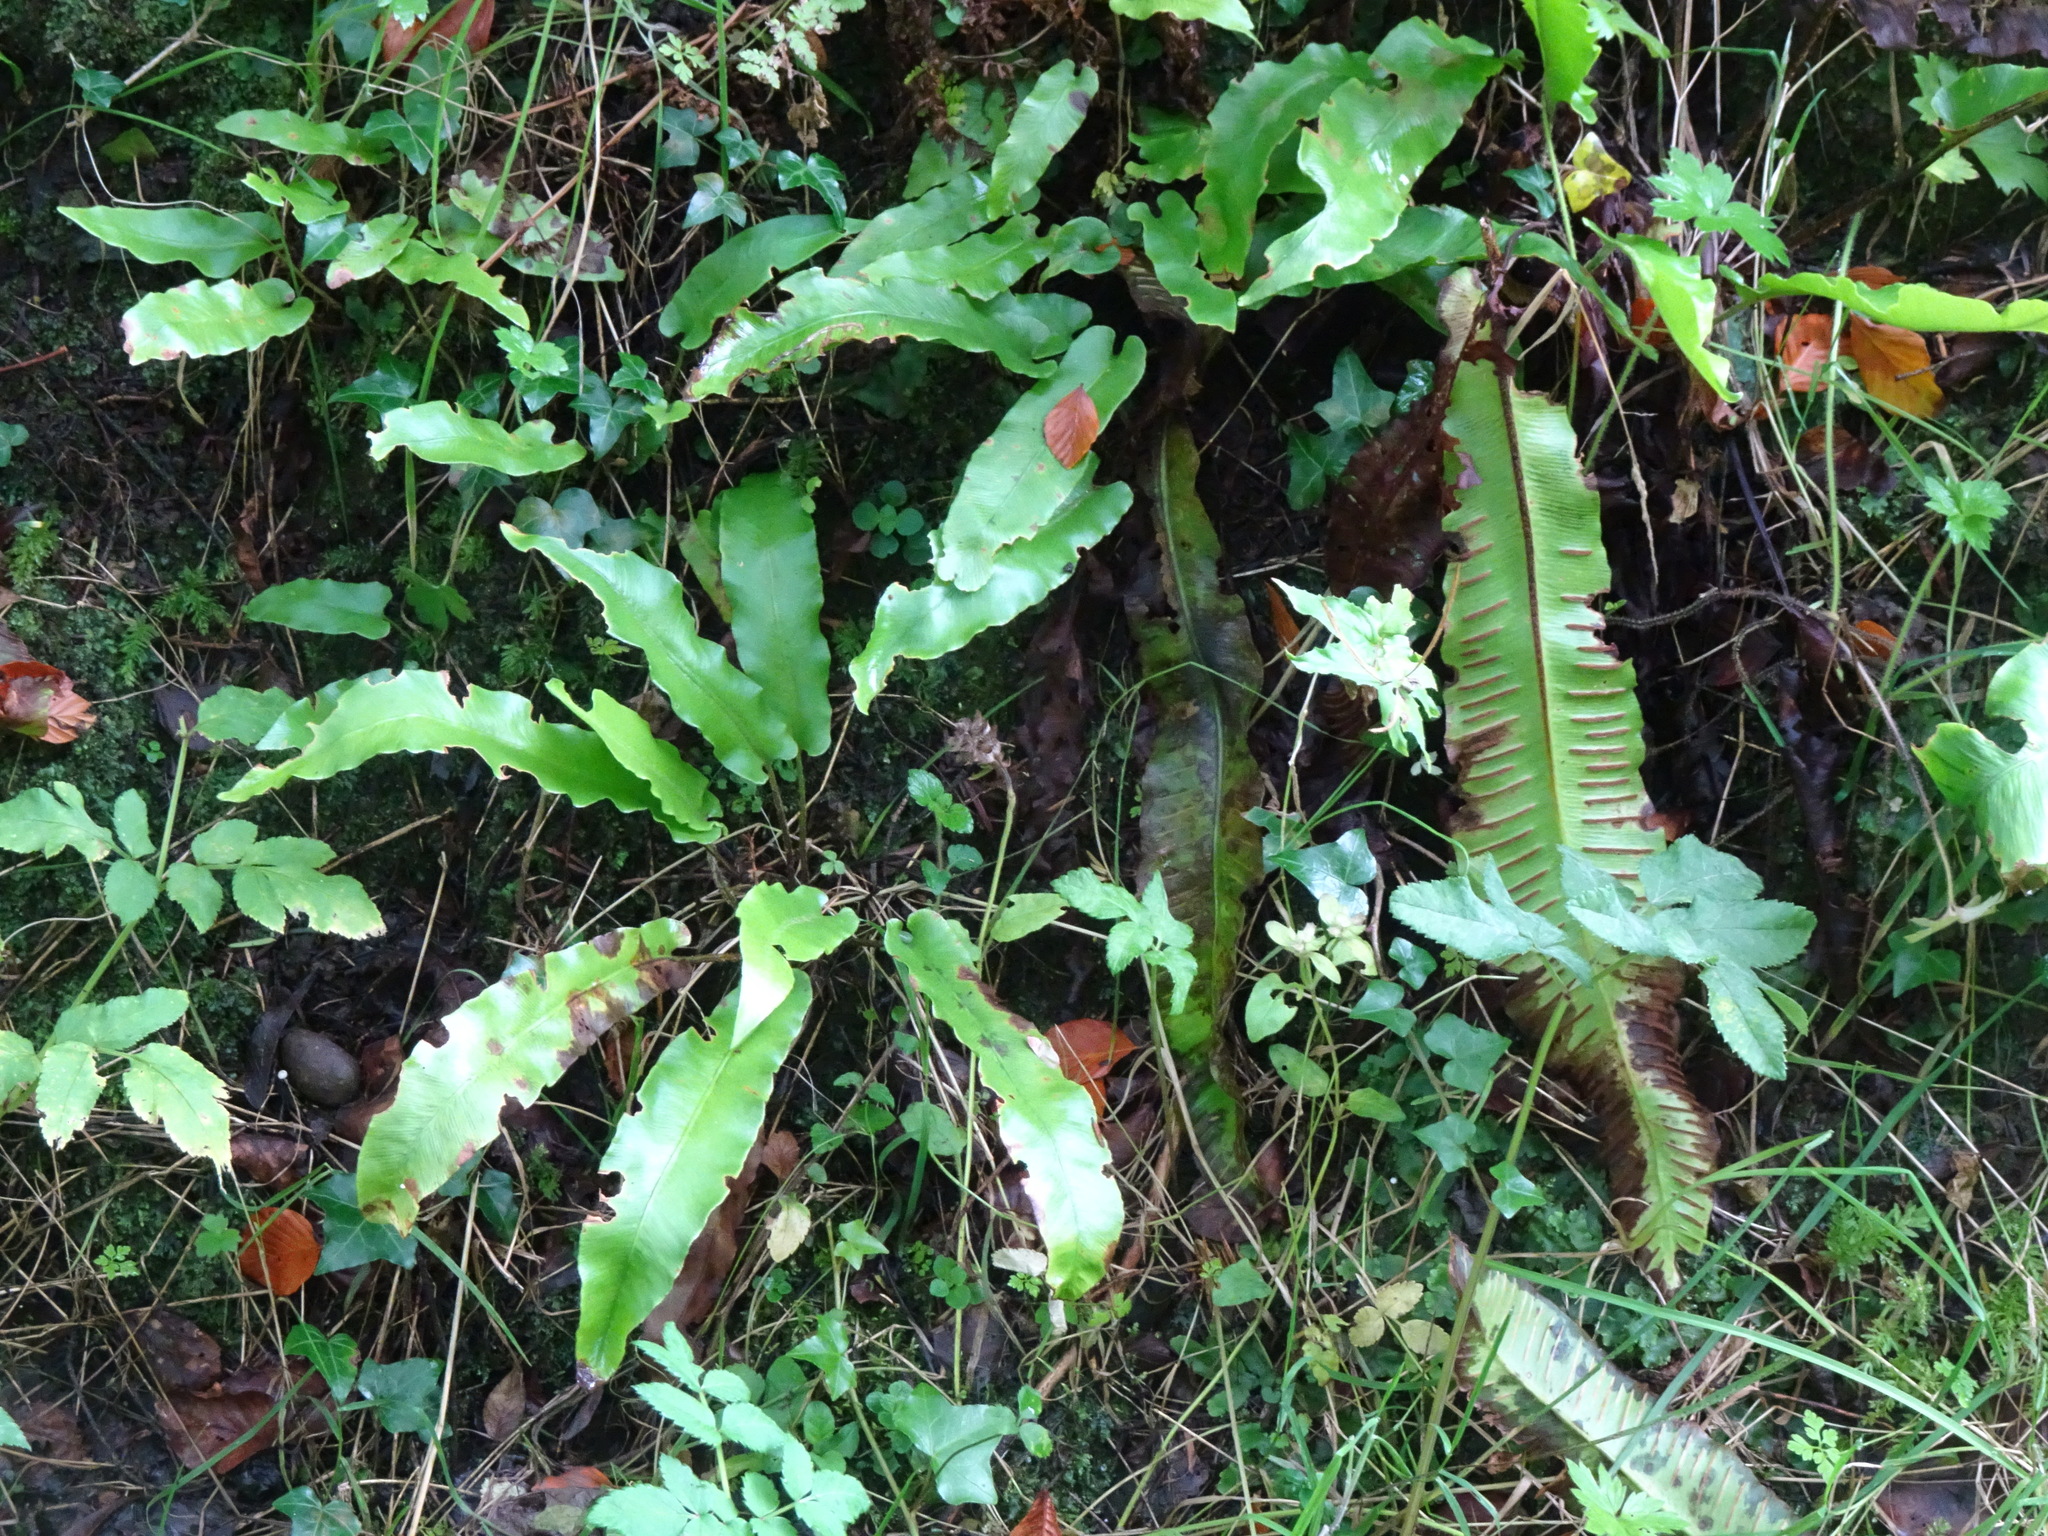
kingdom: Plantae
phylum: Tracheophyta
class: Polypodiopsida
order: Polypodiales
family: Aspleniaceae
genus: Asplenium
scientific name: Asplenium scolopendrium
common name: Hart's-tongue fern
